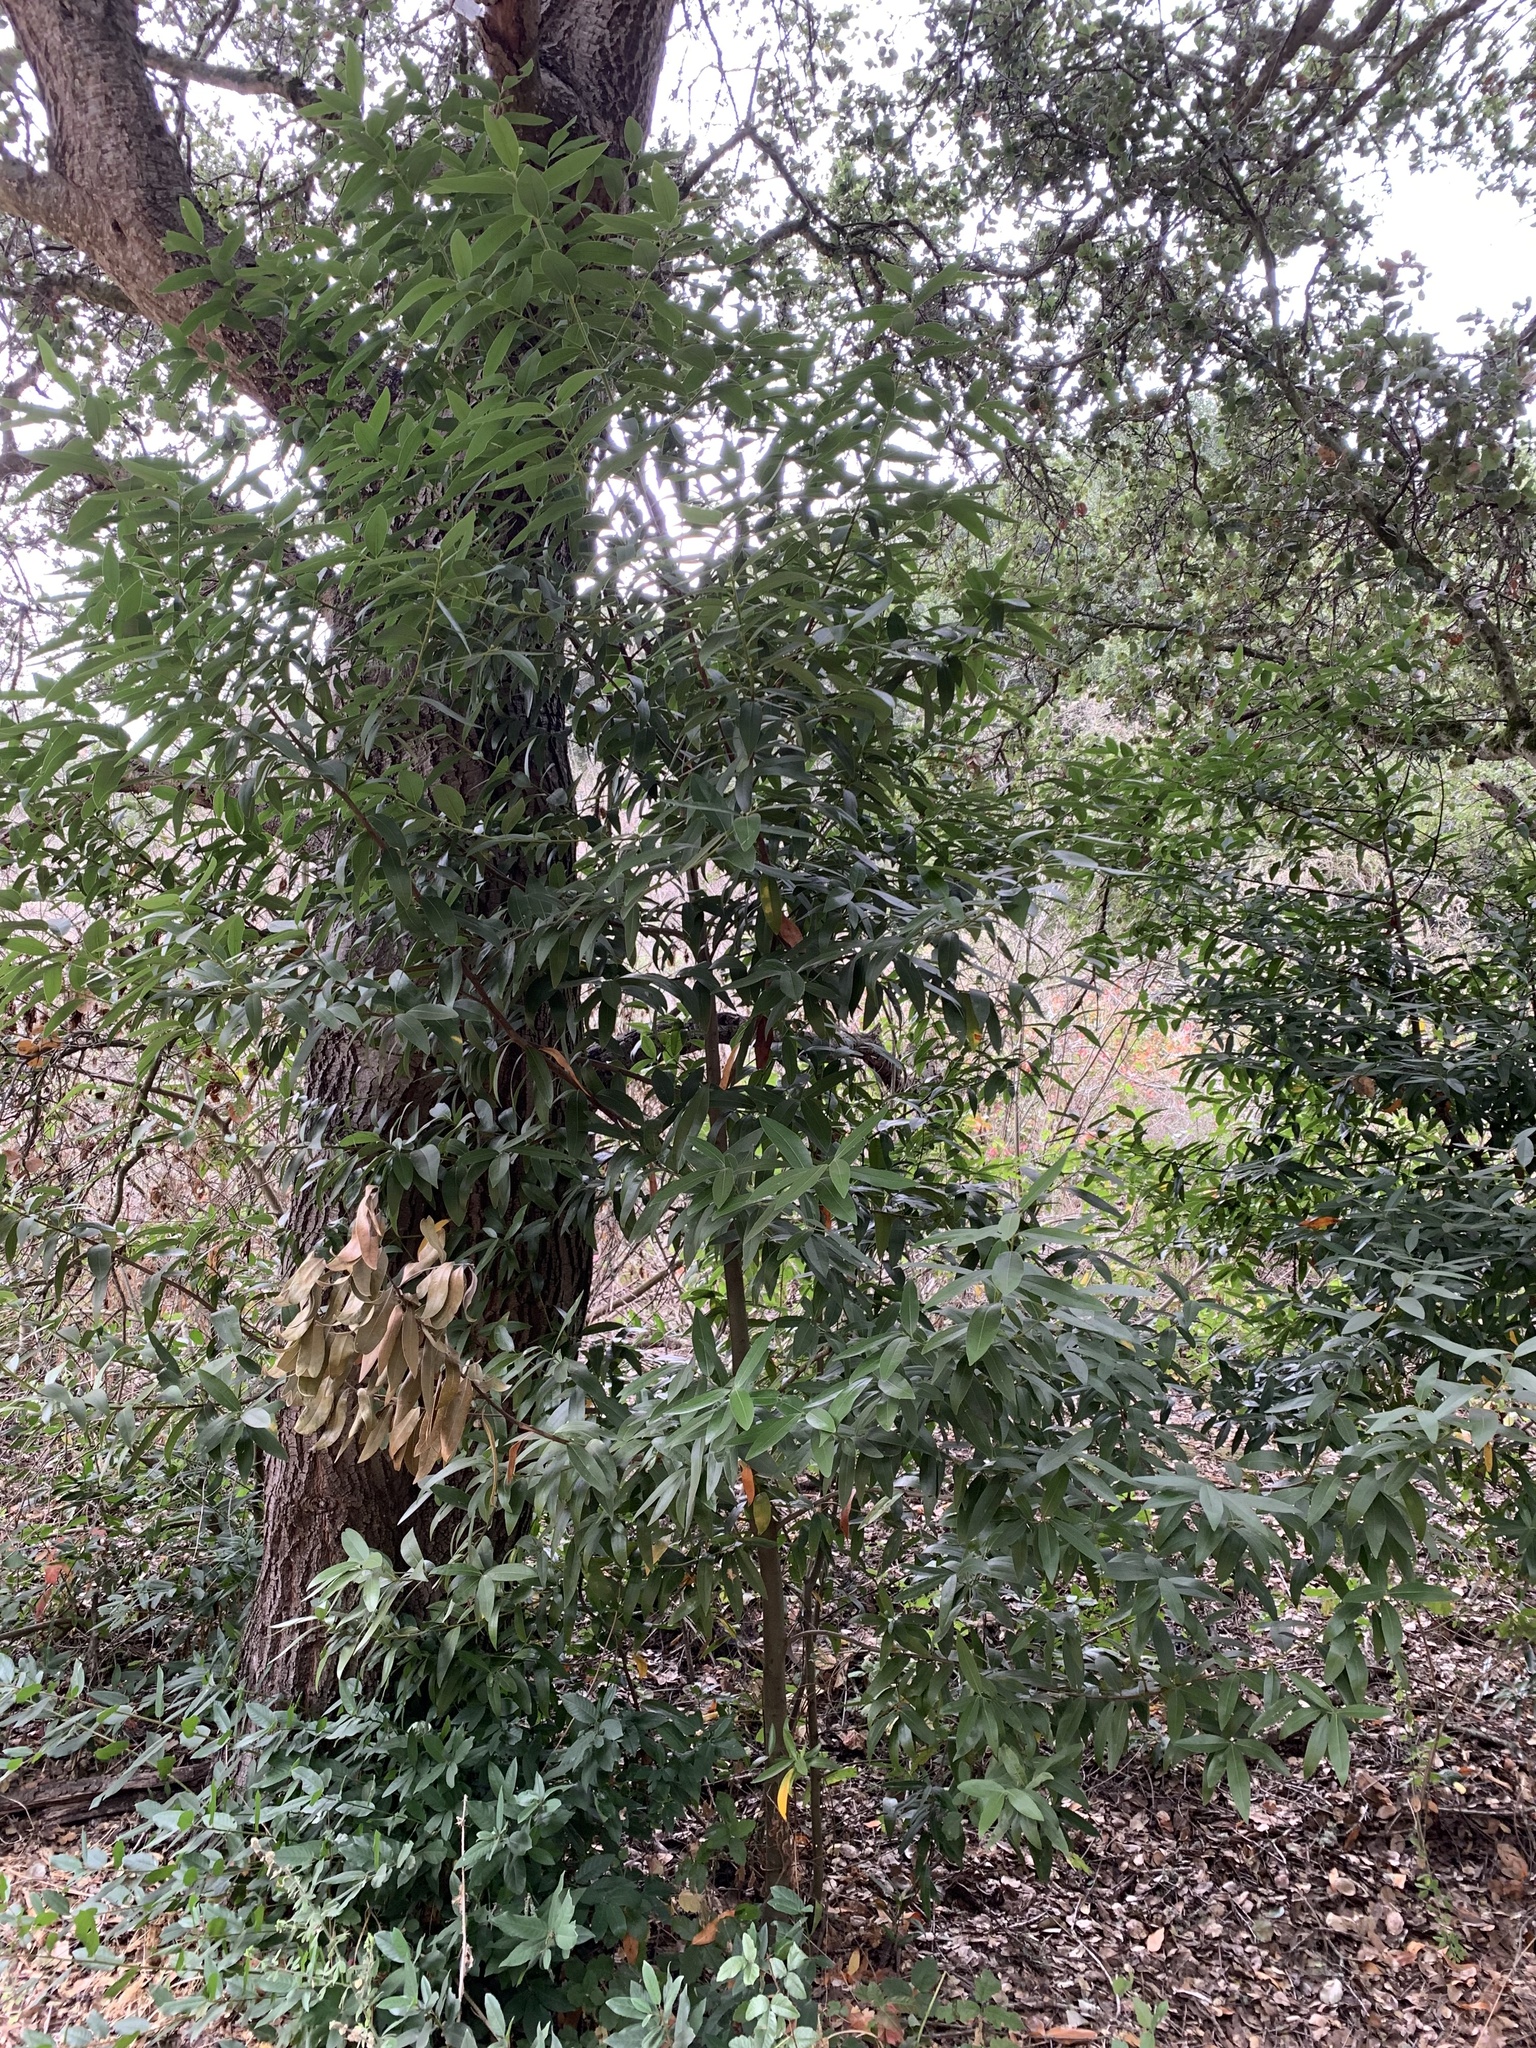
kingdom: Plantae
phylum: Tracheophyta
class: Magnoliopsida
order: Laurales
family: Lauraceae
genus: Umbellularia
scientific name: Umbellularia californica
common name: California bay
